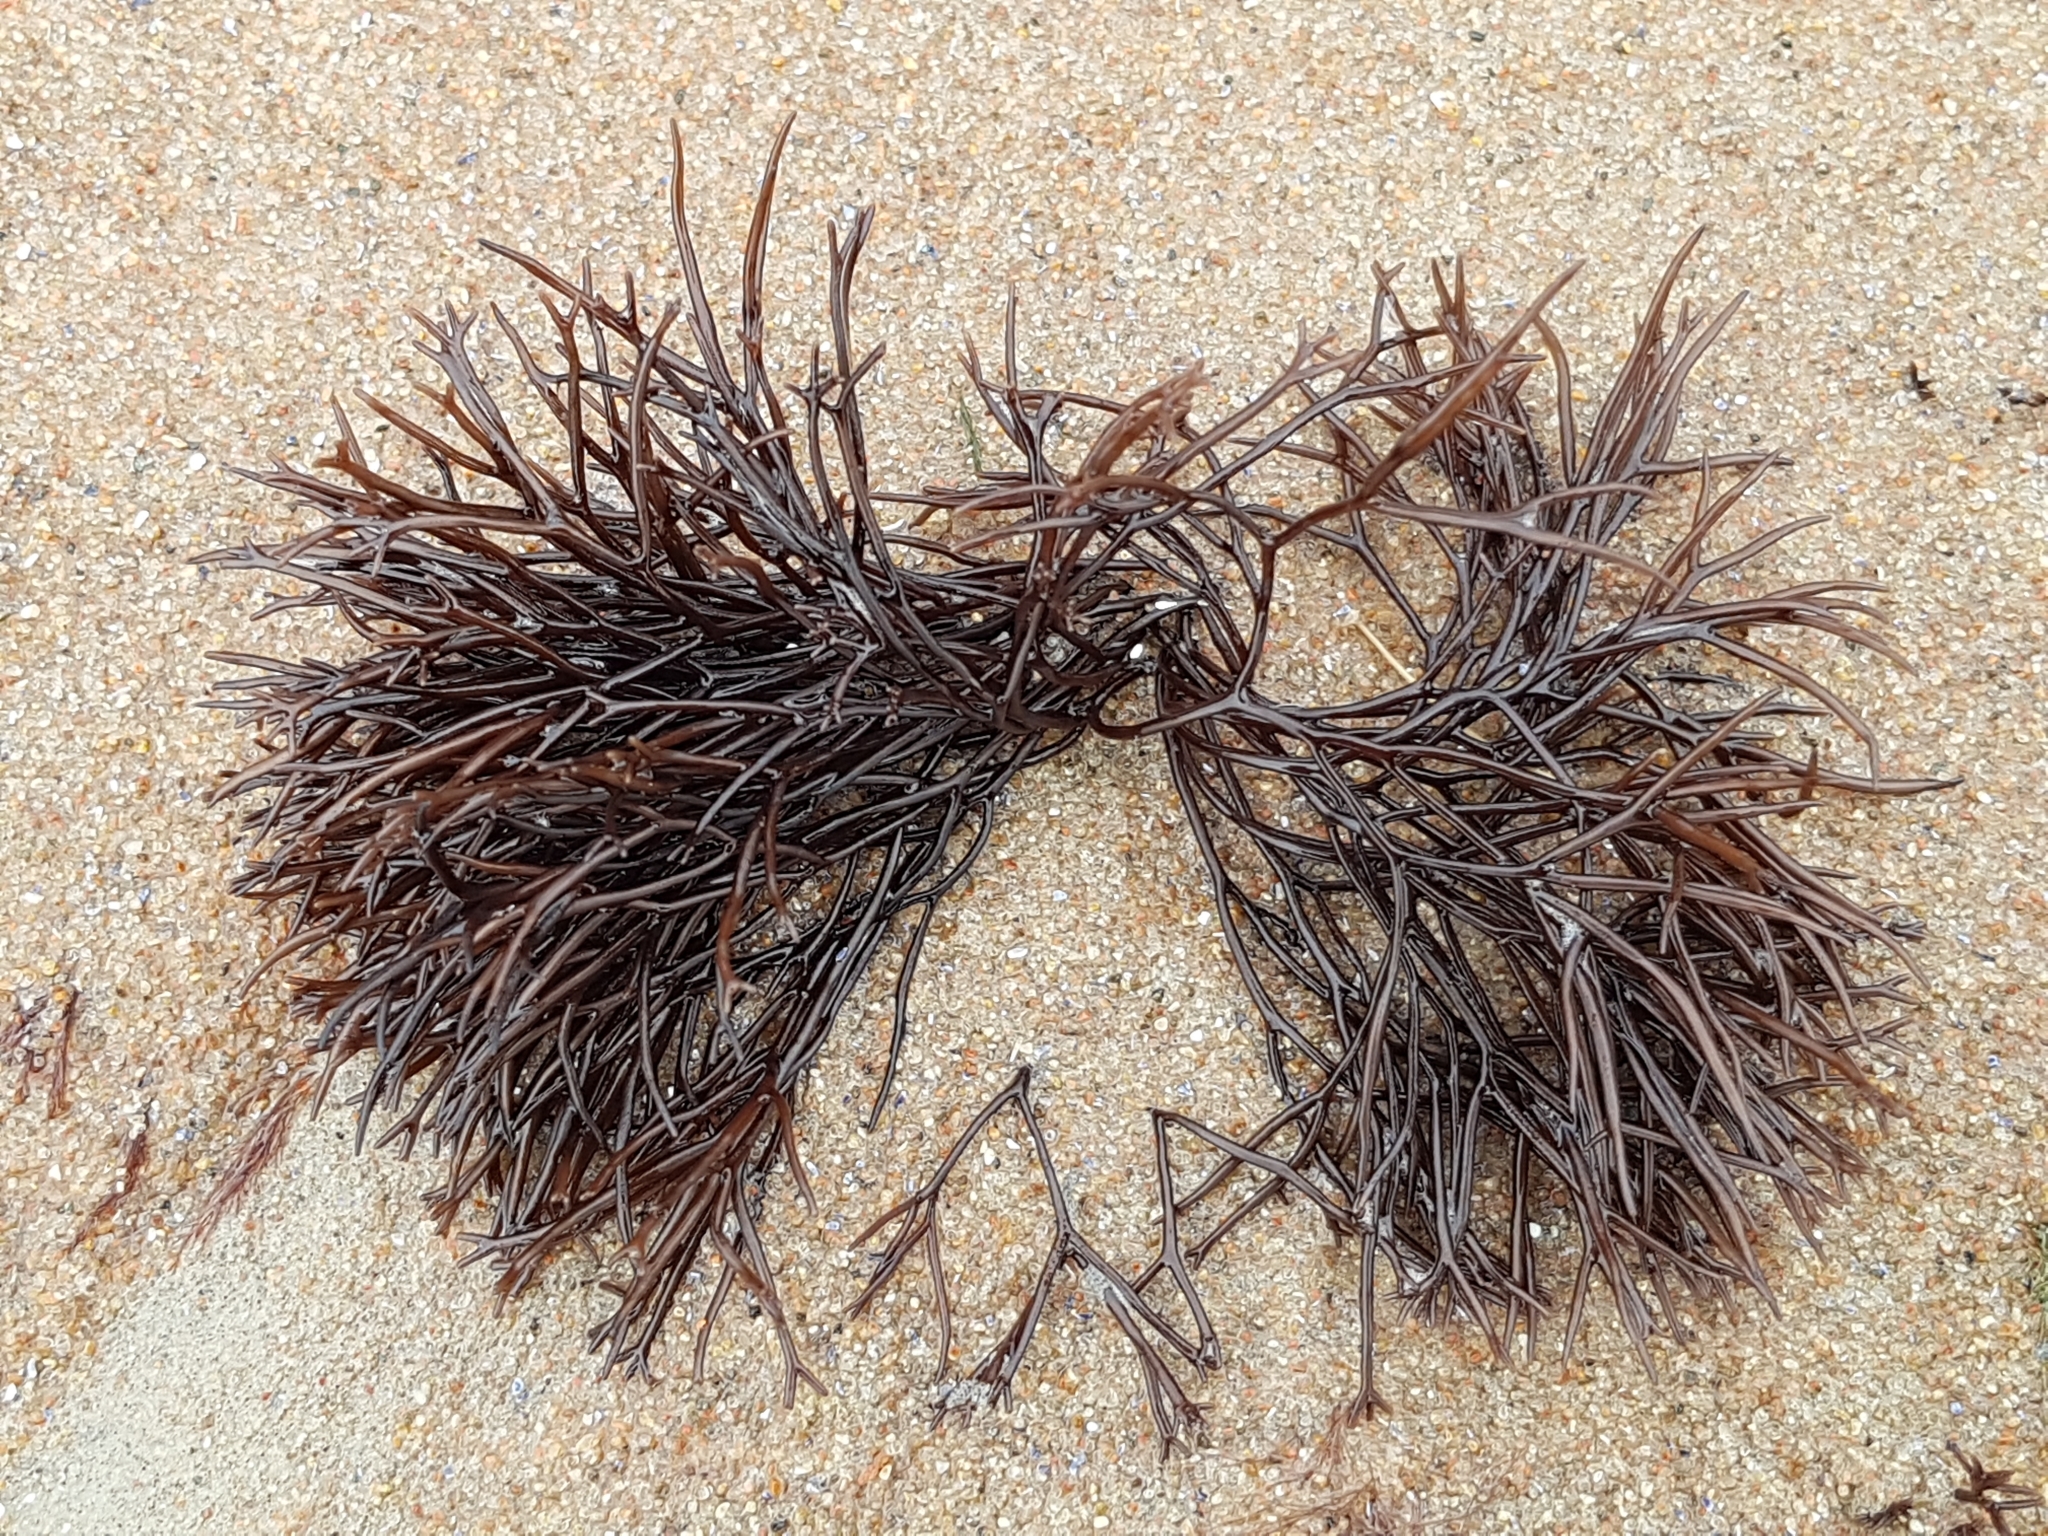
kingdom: Plantae
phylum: Rhodophyta
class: Florideophyceae
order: Gigartinales
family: Furcellariaceae
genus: Furcellaria
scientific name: Furcellaria lumbricalis
